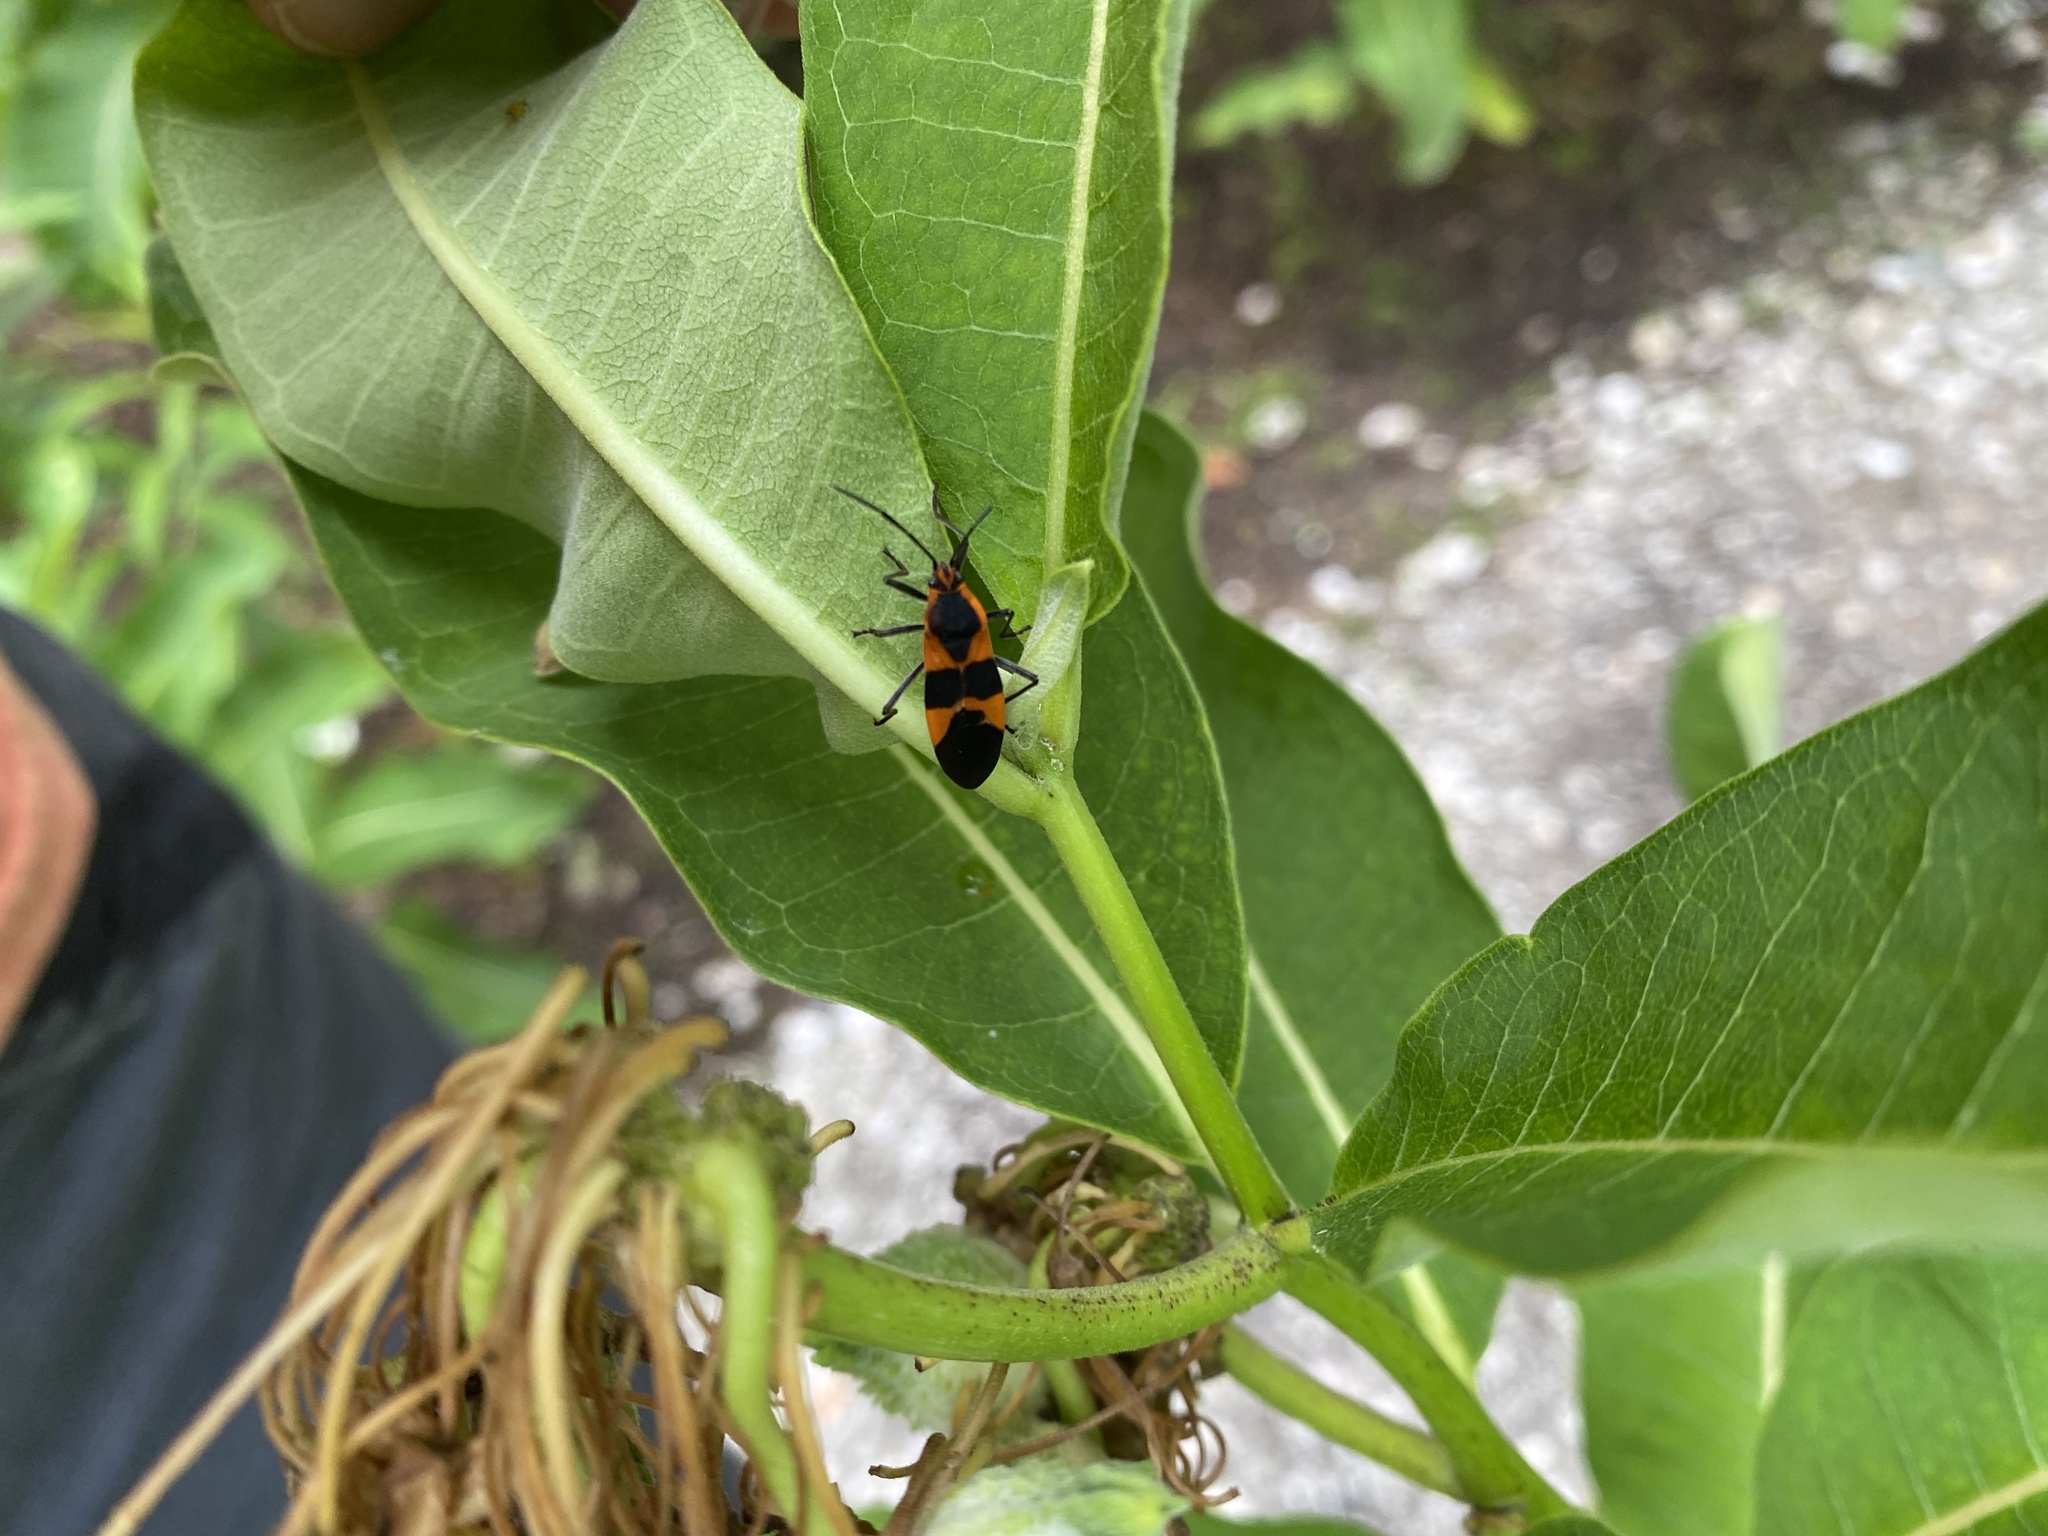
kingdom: Animalia
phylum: Arthropoda
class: Insecta
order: Hemiptera
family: Lygaeidae
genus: Oncopeltus
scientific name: Oncopeltus fasciatus
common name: Large milkweed bug
